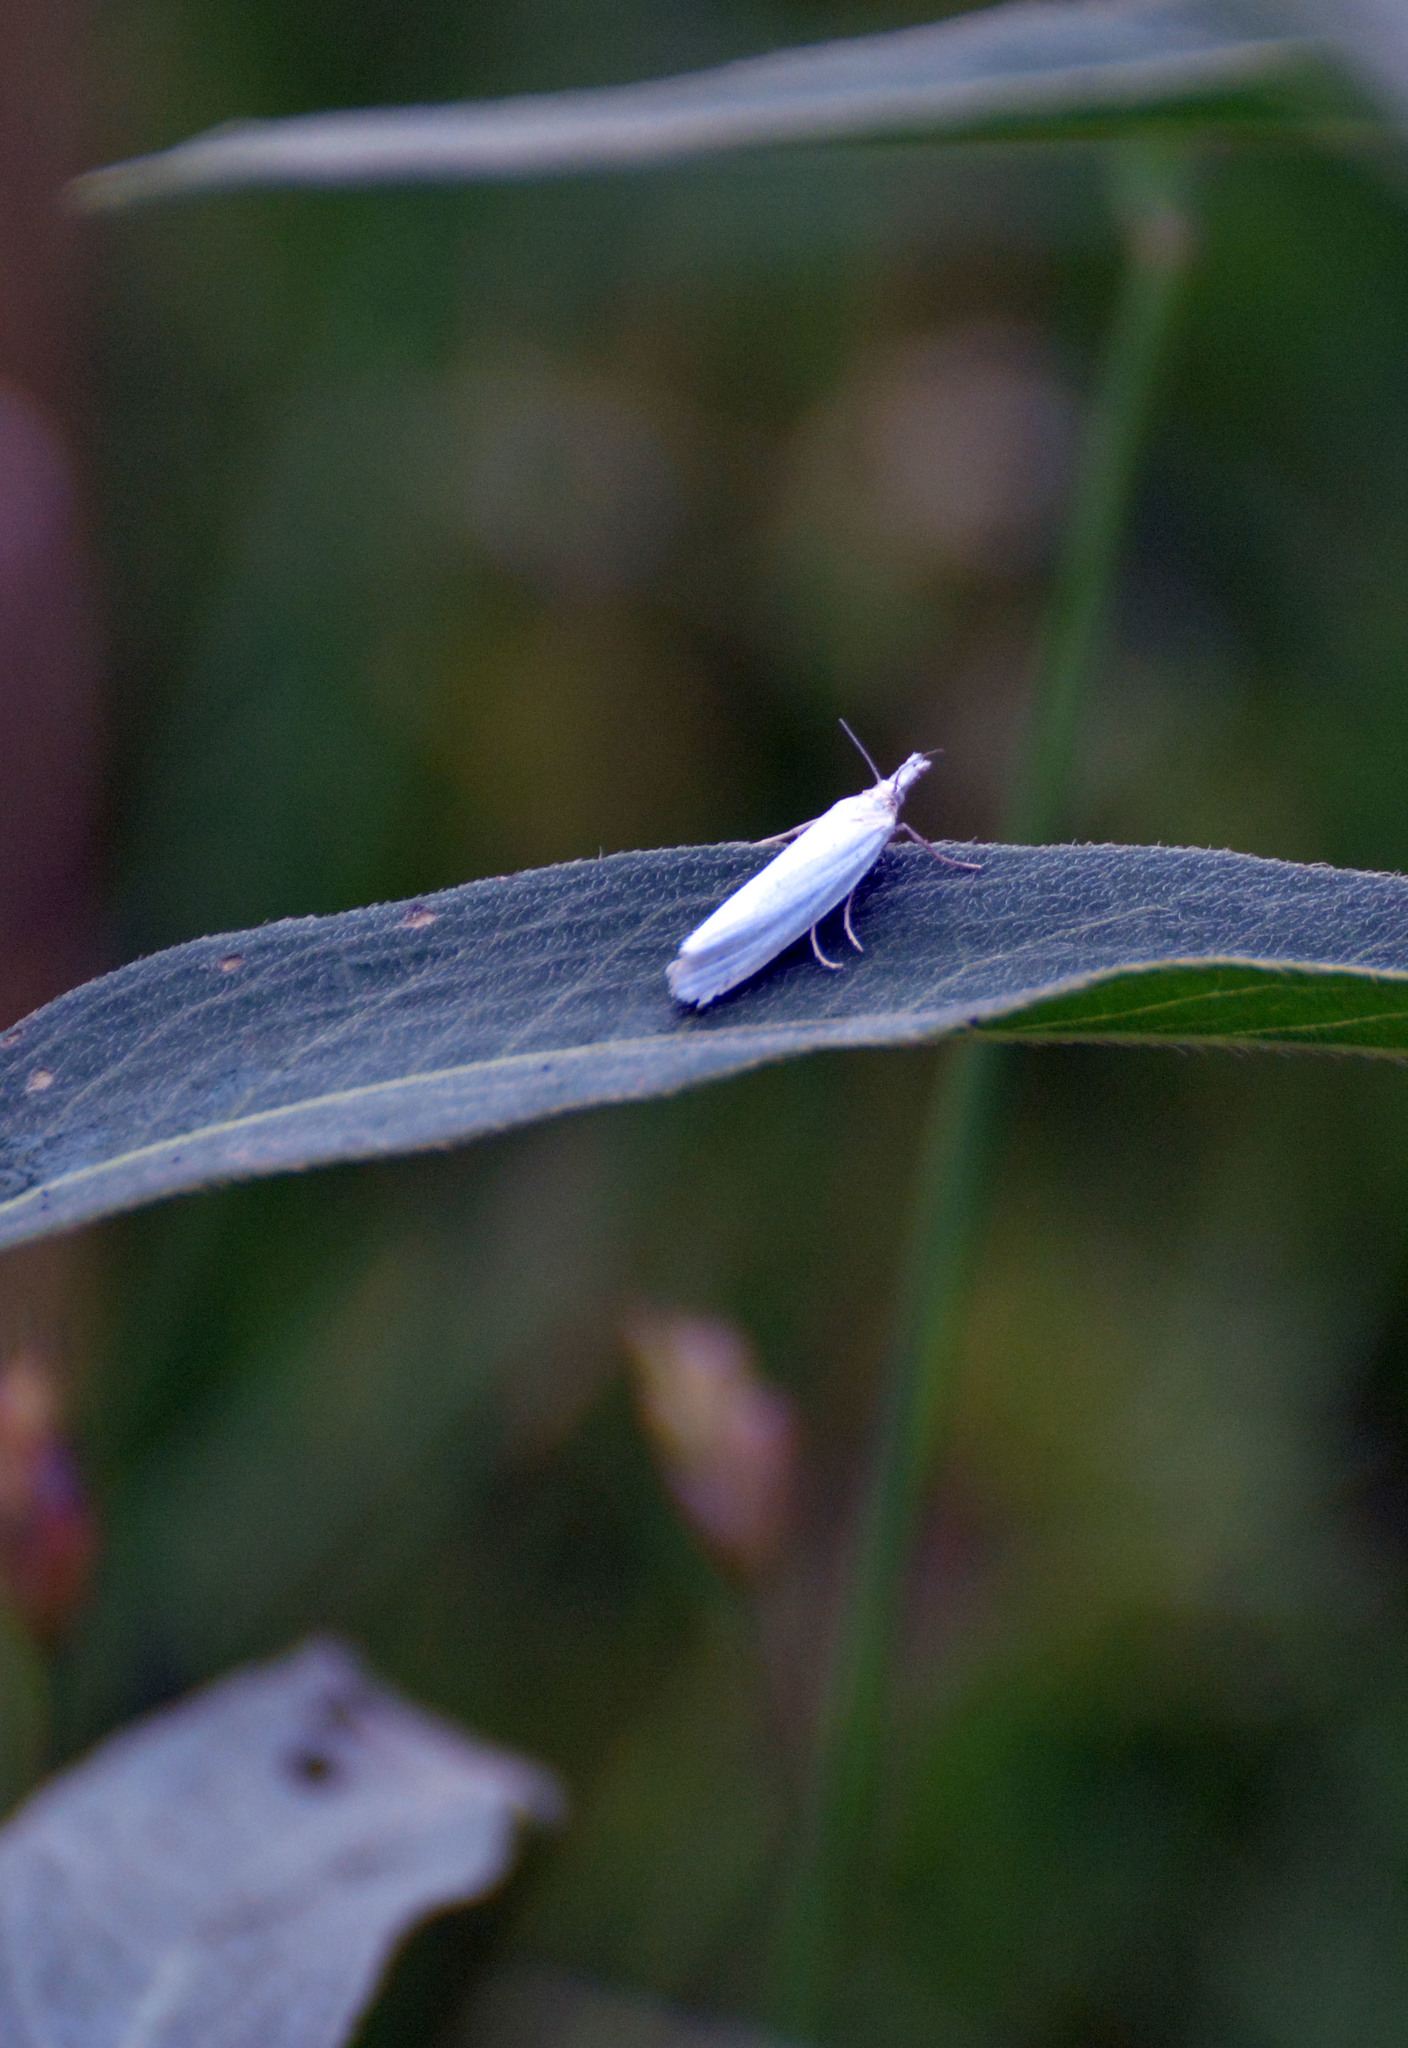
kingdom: Animalia
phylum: Arthropoda
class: Insecta
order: Lepidoptera
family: Crambidae
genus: Crambus
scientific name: Crambus perlellus
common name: Yellow satin veneer
